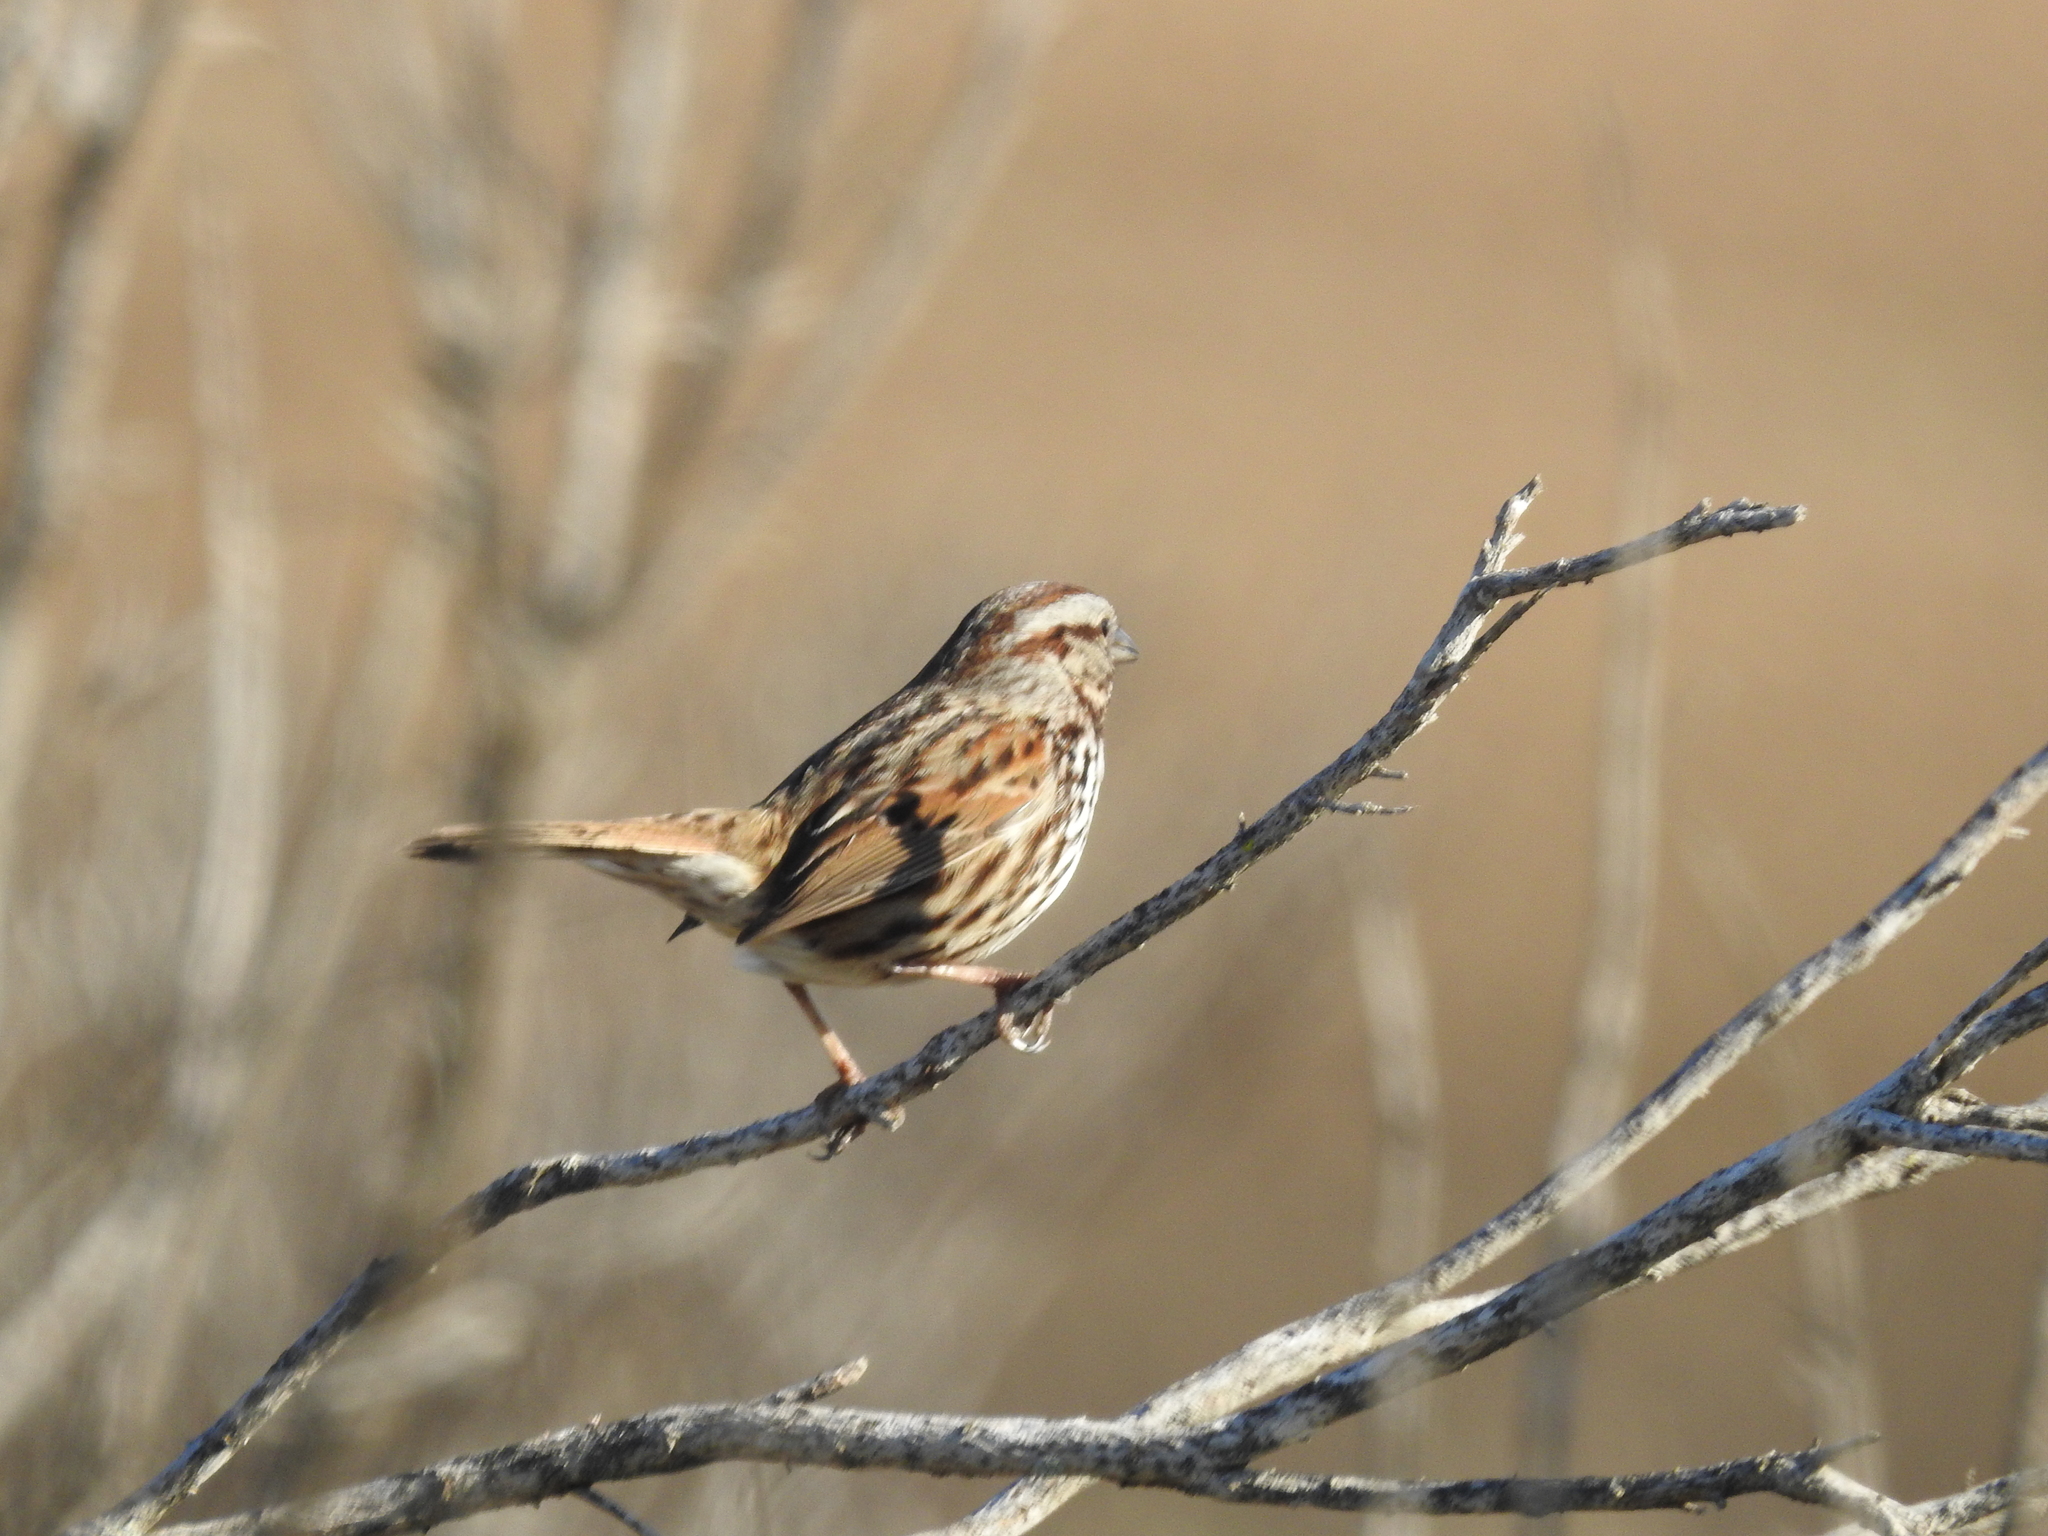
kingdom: Animalia
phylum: Chordata
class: Aves
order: Passeriformes
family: Passerellidae
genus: Melospiza
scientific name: Melospiza melodia
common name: Song sparrow
